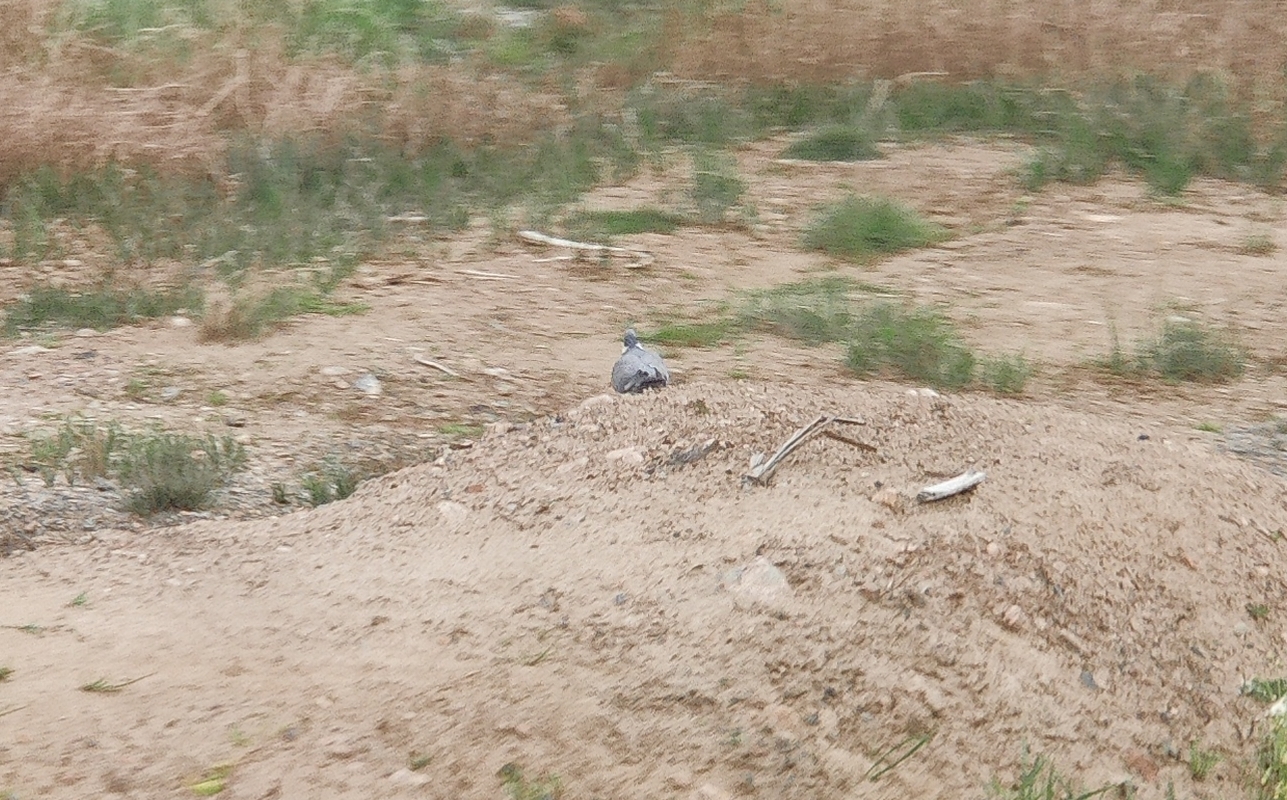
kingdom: Animalia
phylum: Chordata
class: Aves
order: Columbiformes
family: Columbidae
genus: Columba
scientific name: Columba palumbus
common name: Common wood pigeon
